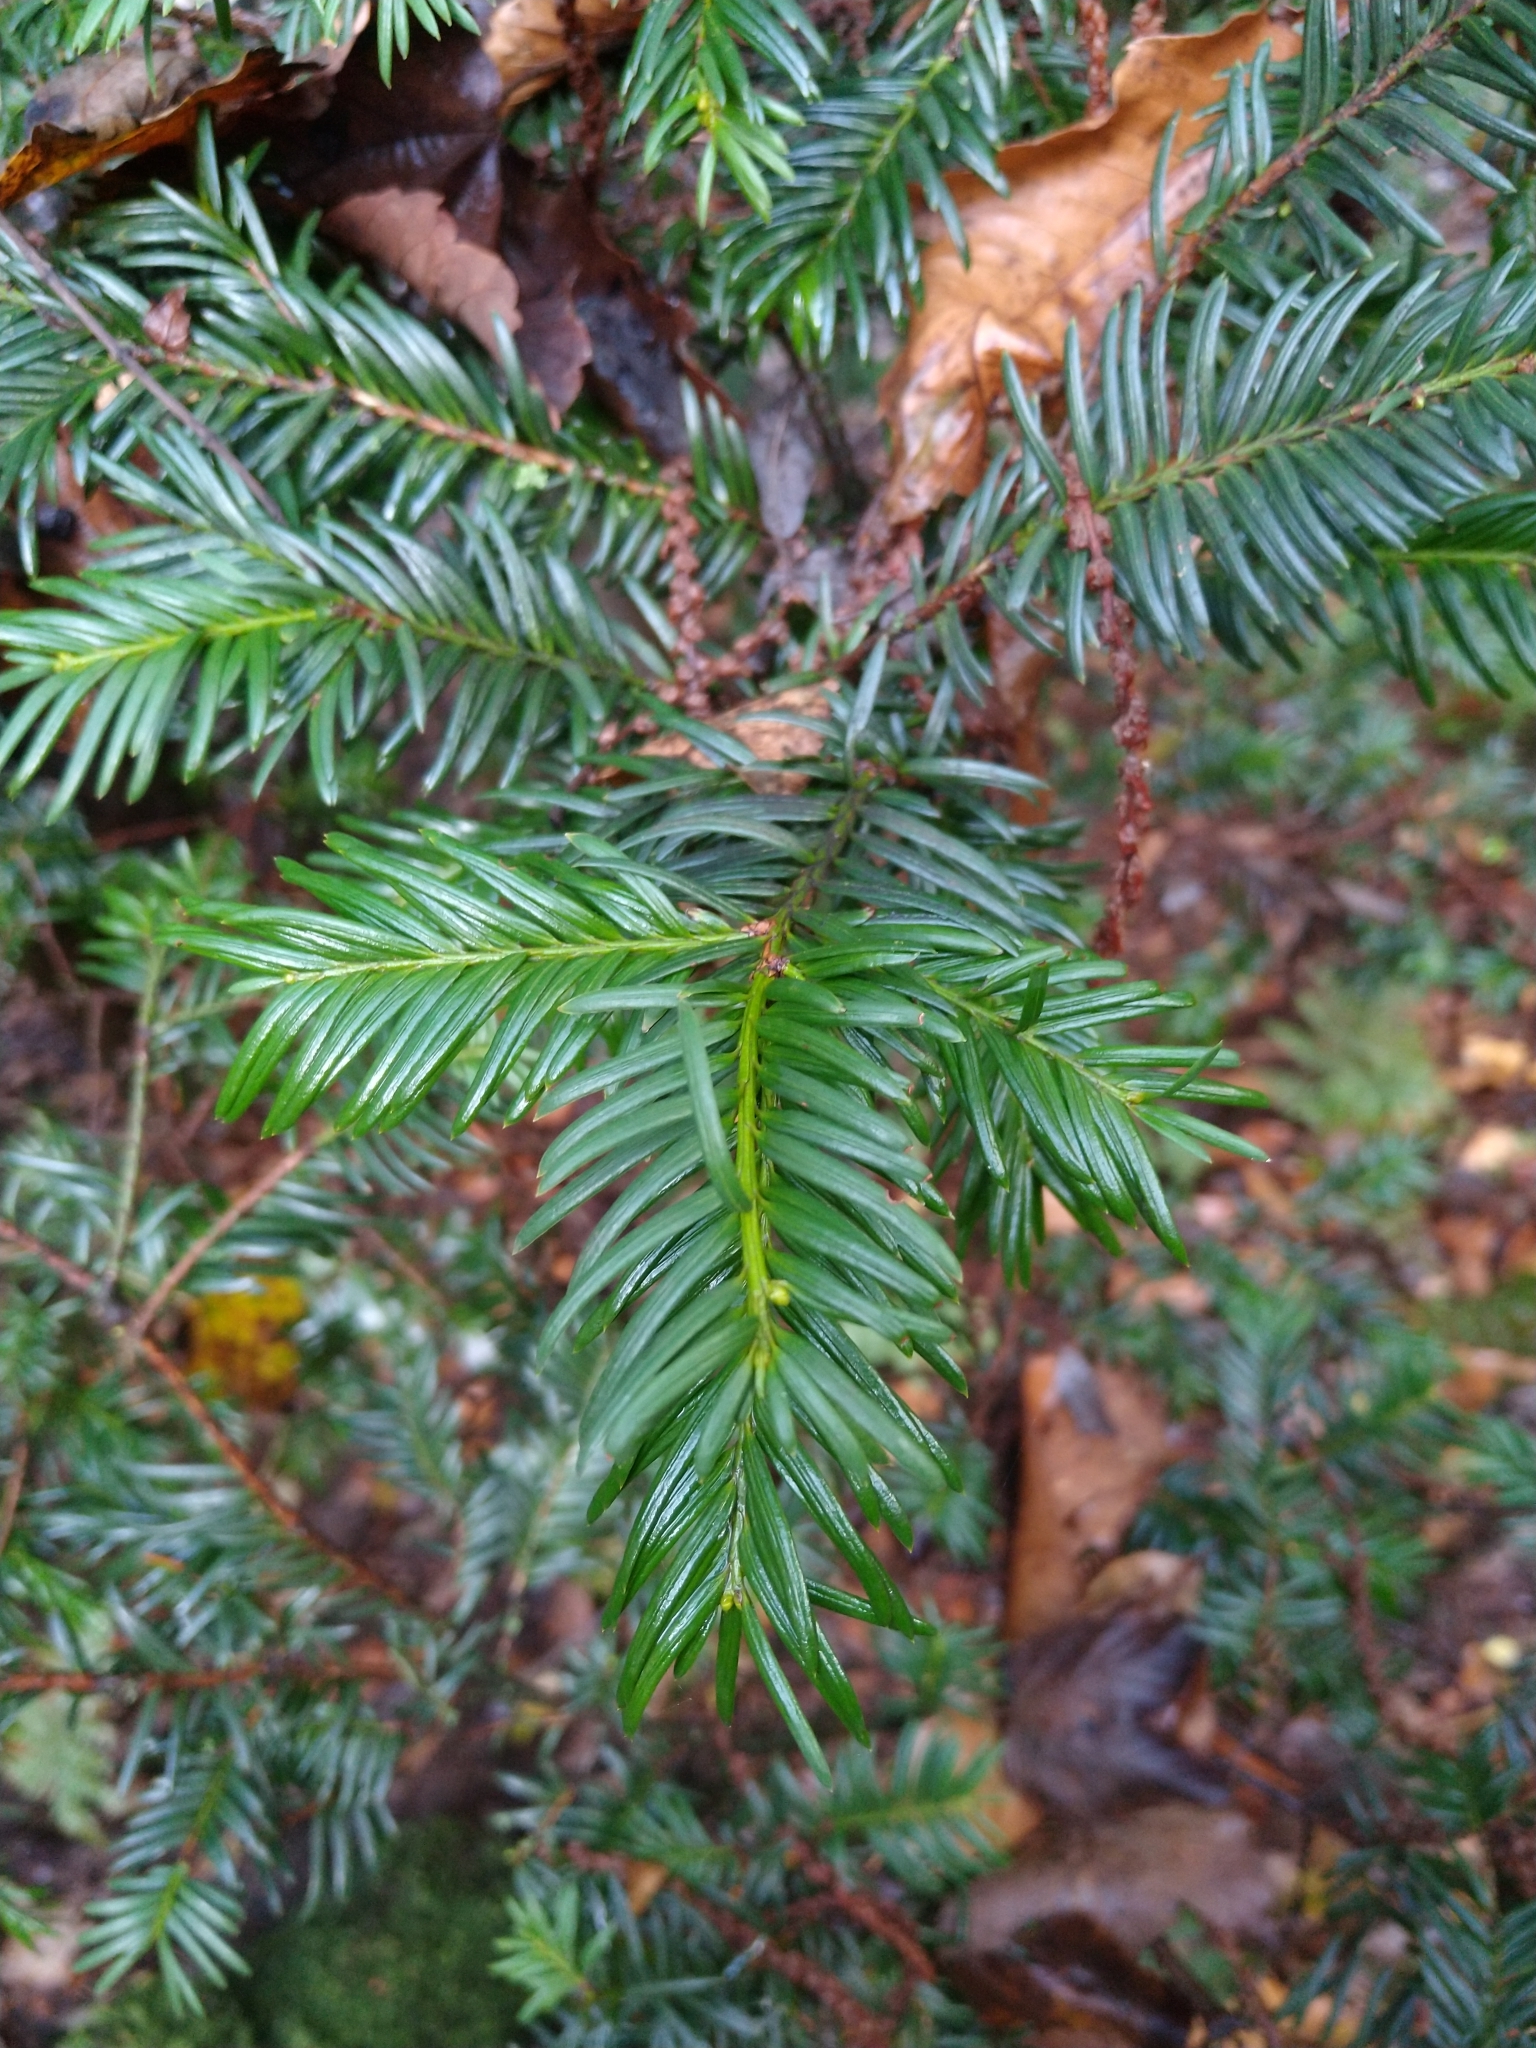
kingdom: Plantae
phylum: Tracheophyta
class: Pinopsida
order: Pinales
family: Taxaceae
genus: Taxus
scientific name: Taxus baccata
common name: Yew
